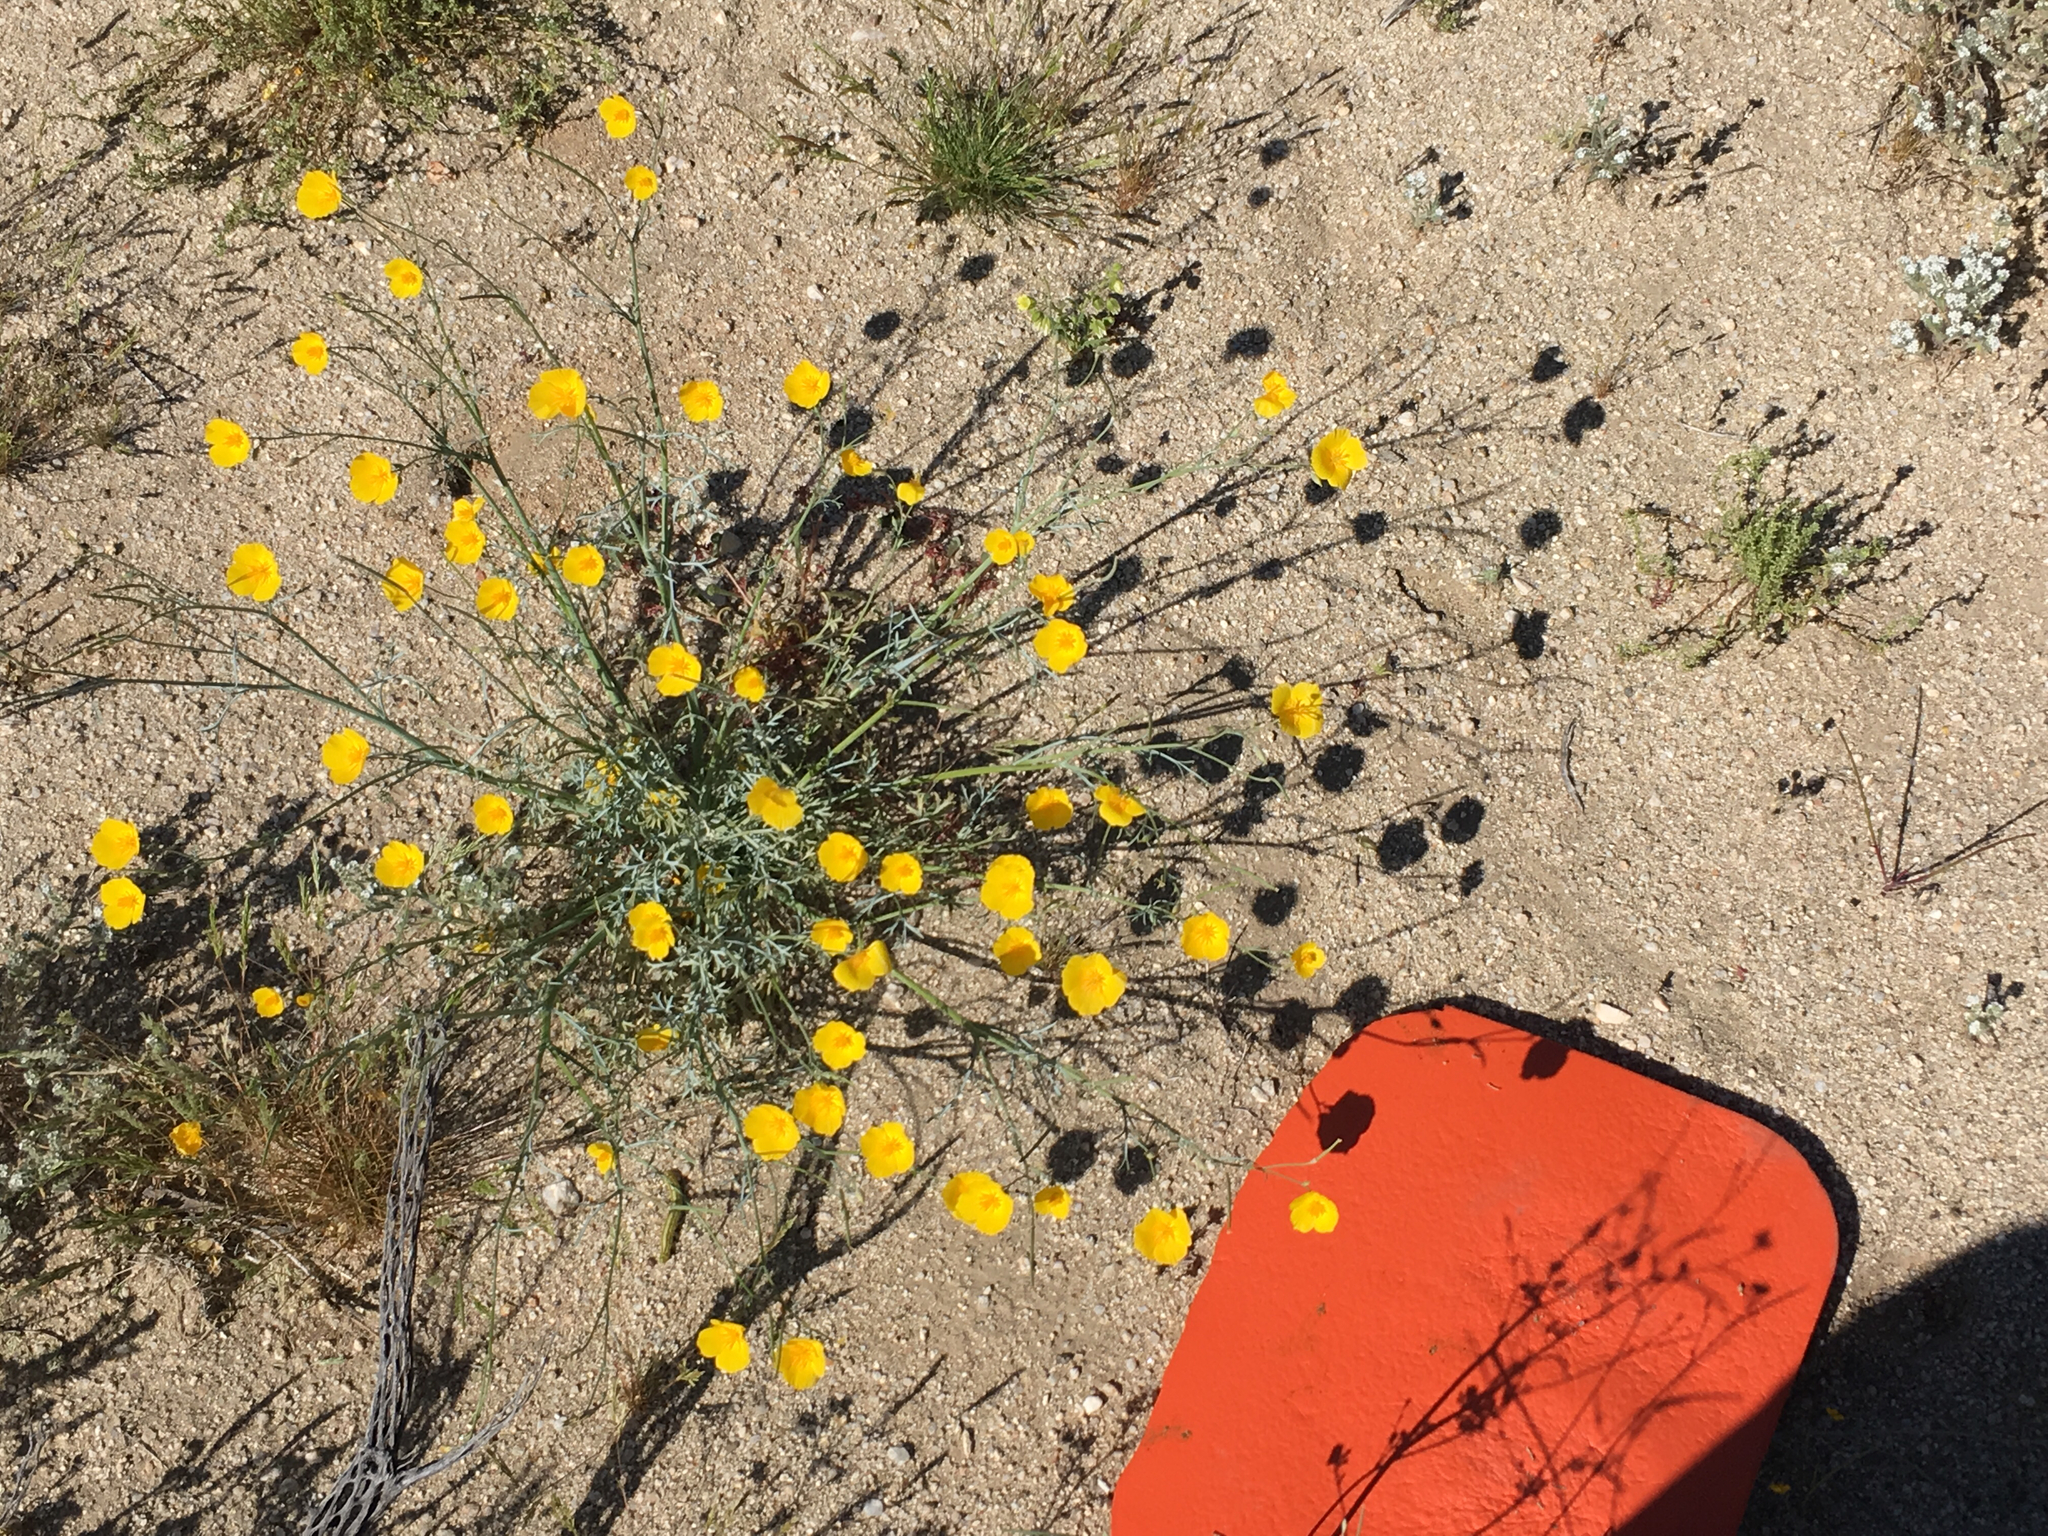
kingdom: Plantae
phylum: Tracheophyta
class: Magnoliopsida
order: Ranunculales
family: Papaveraceae
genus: Eschscholzia
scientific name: Eschscholzia parishii
